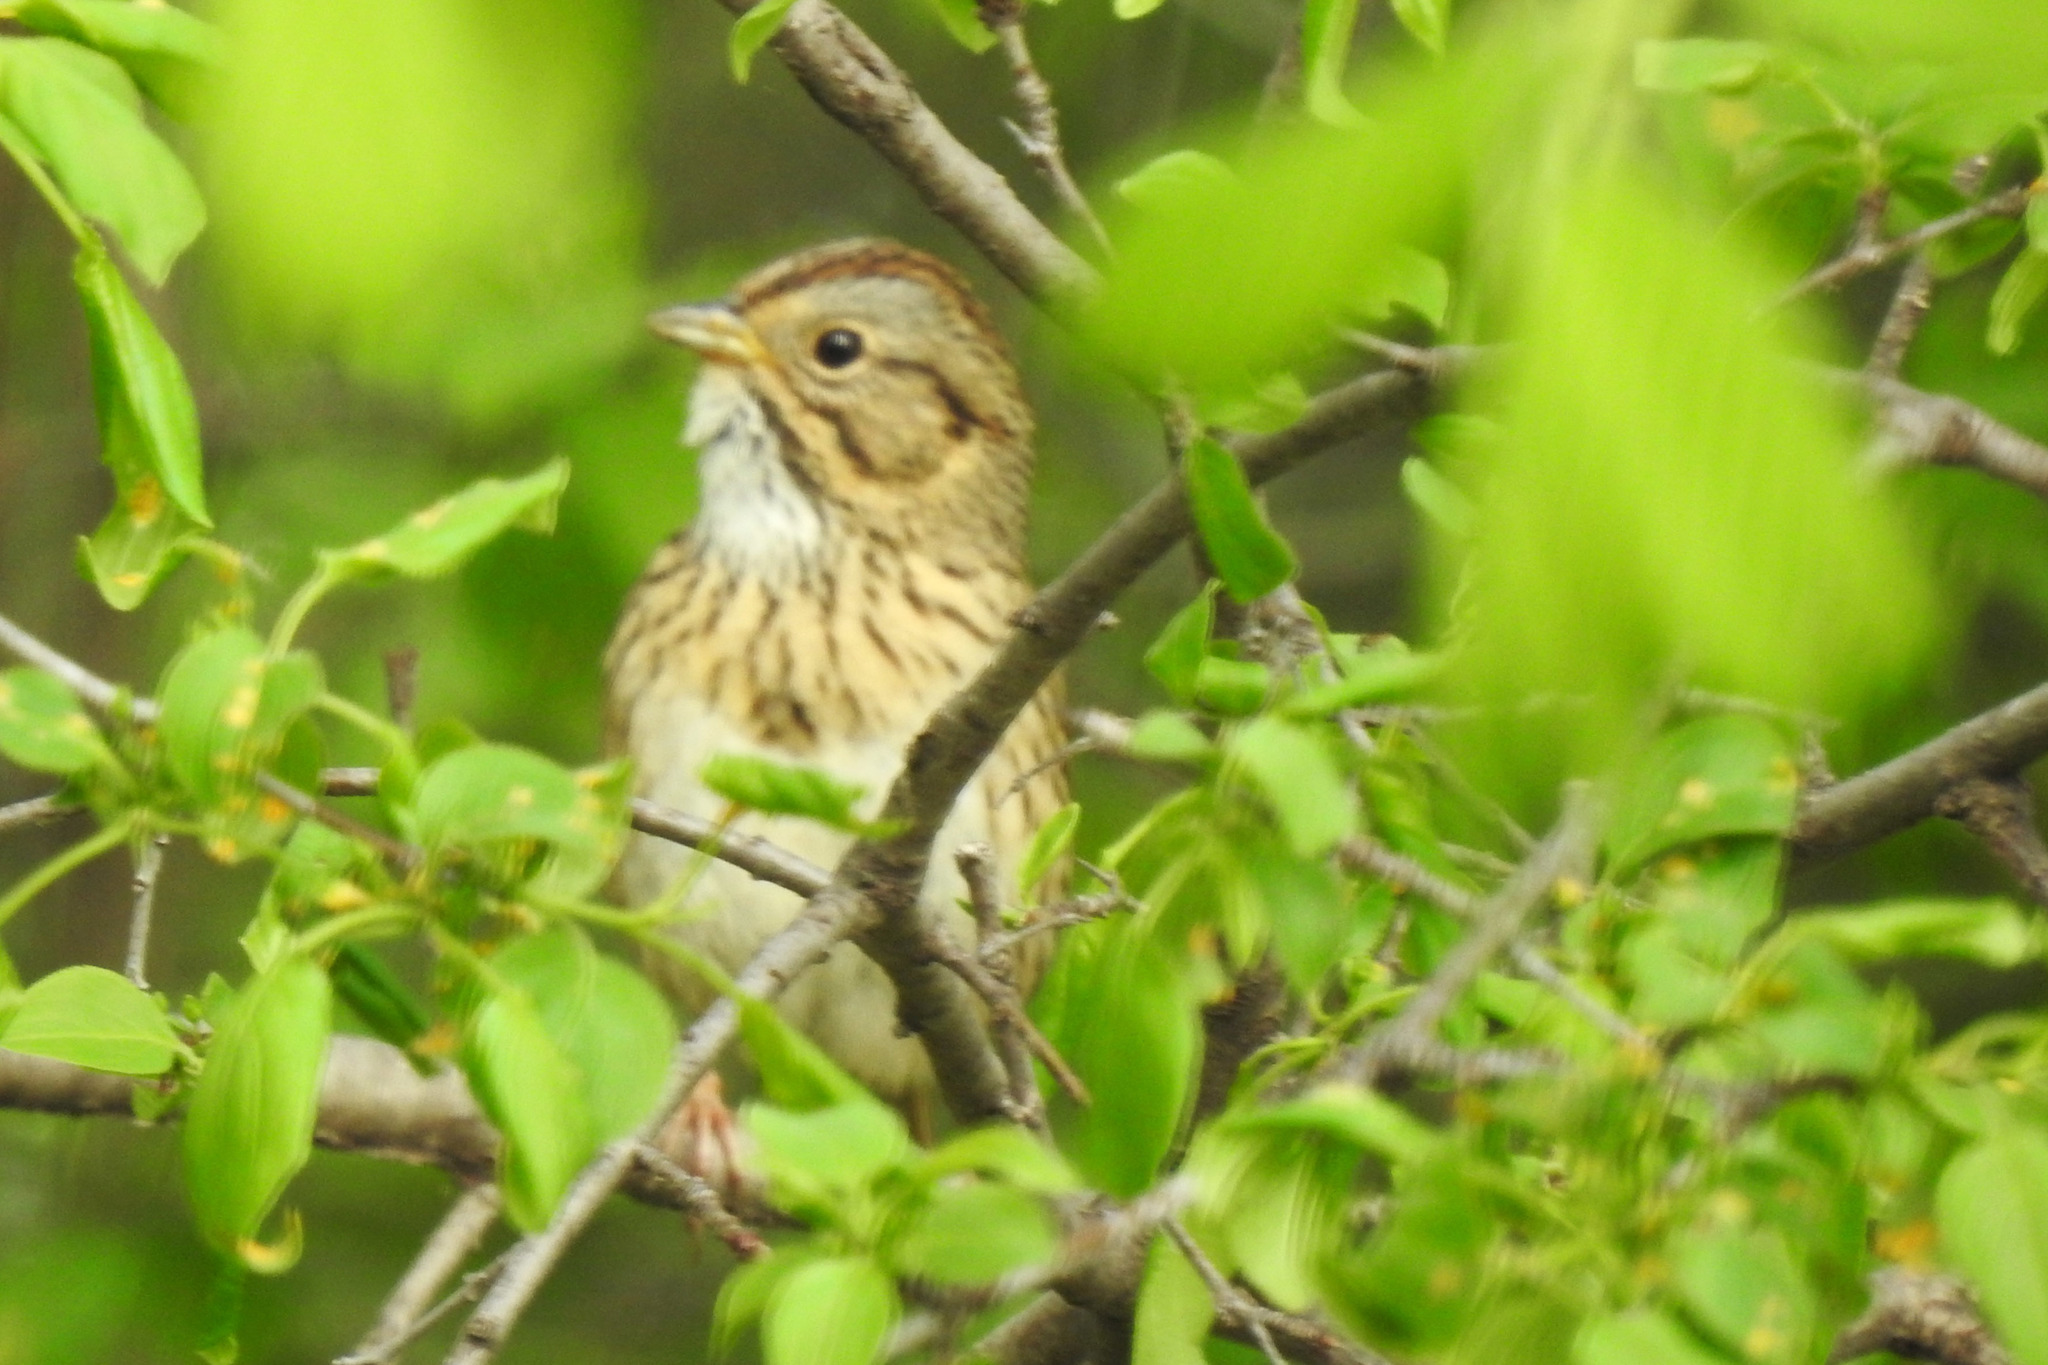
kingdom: Animalia
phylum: Chordata
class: Aves
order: Passeriformes
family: Passerellidae
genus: Melospiza
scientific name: Melospiza lincolnii
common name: Lincoln's sparrow
